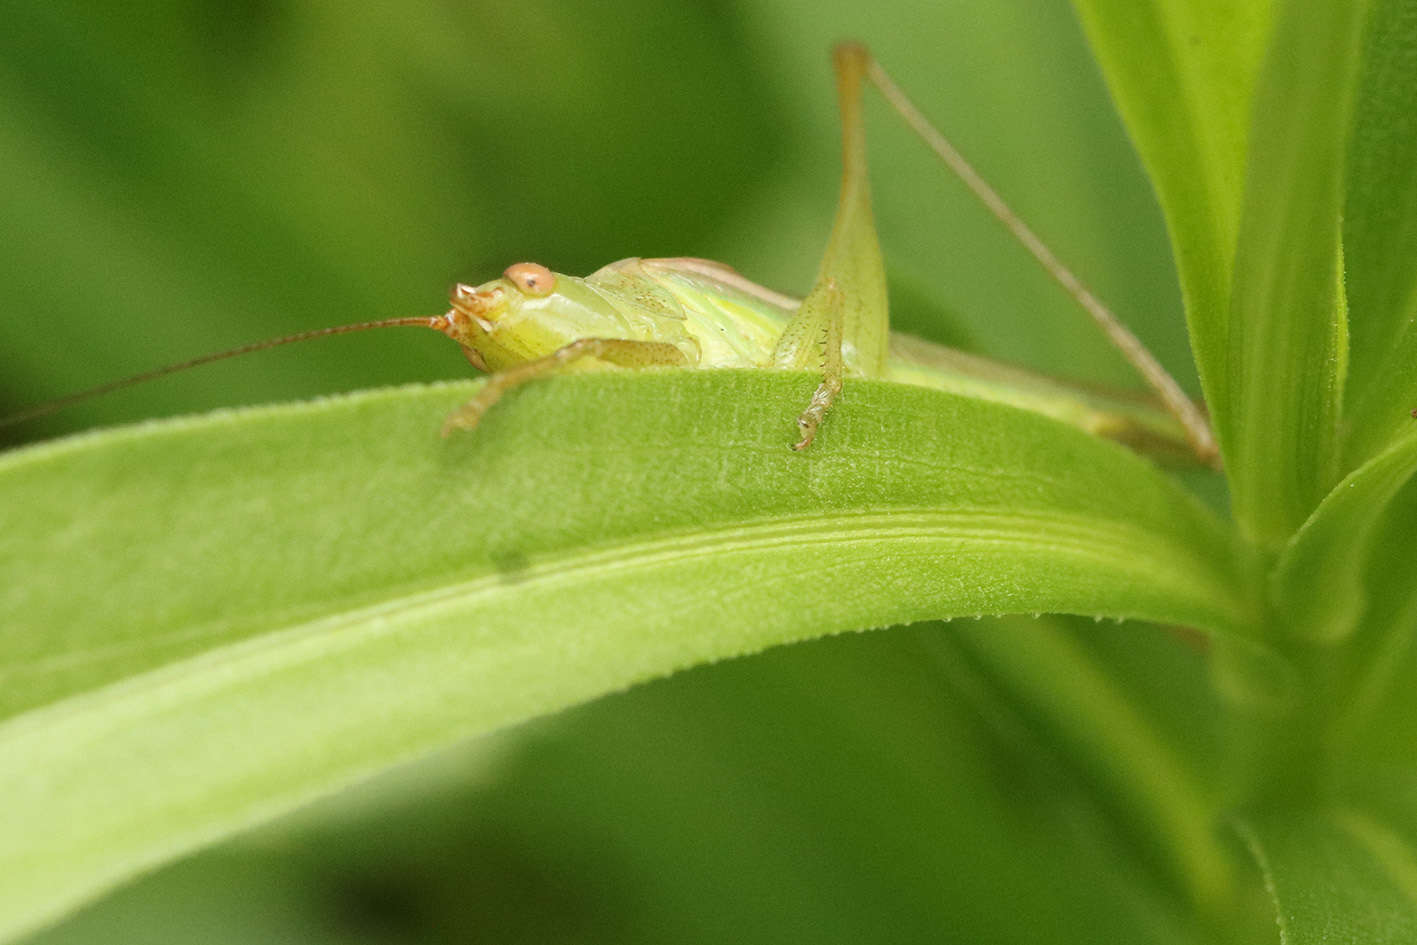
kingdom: Animalia
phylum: Arthropoda
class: Insecta
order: Orthoptera
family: Tettigoniidae
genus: Conocephalus
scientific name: Conocephalus longipes
